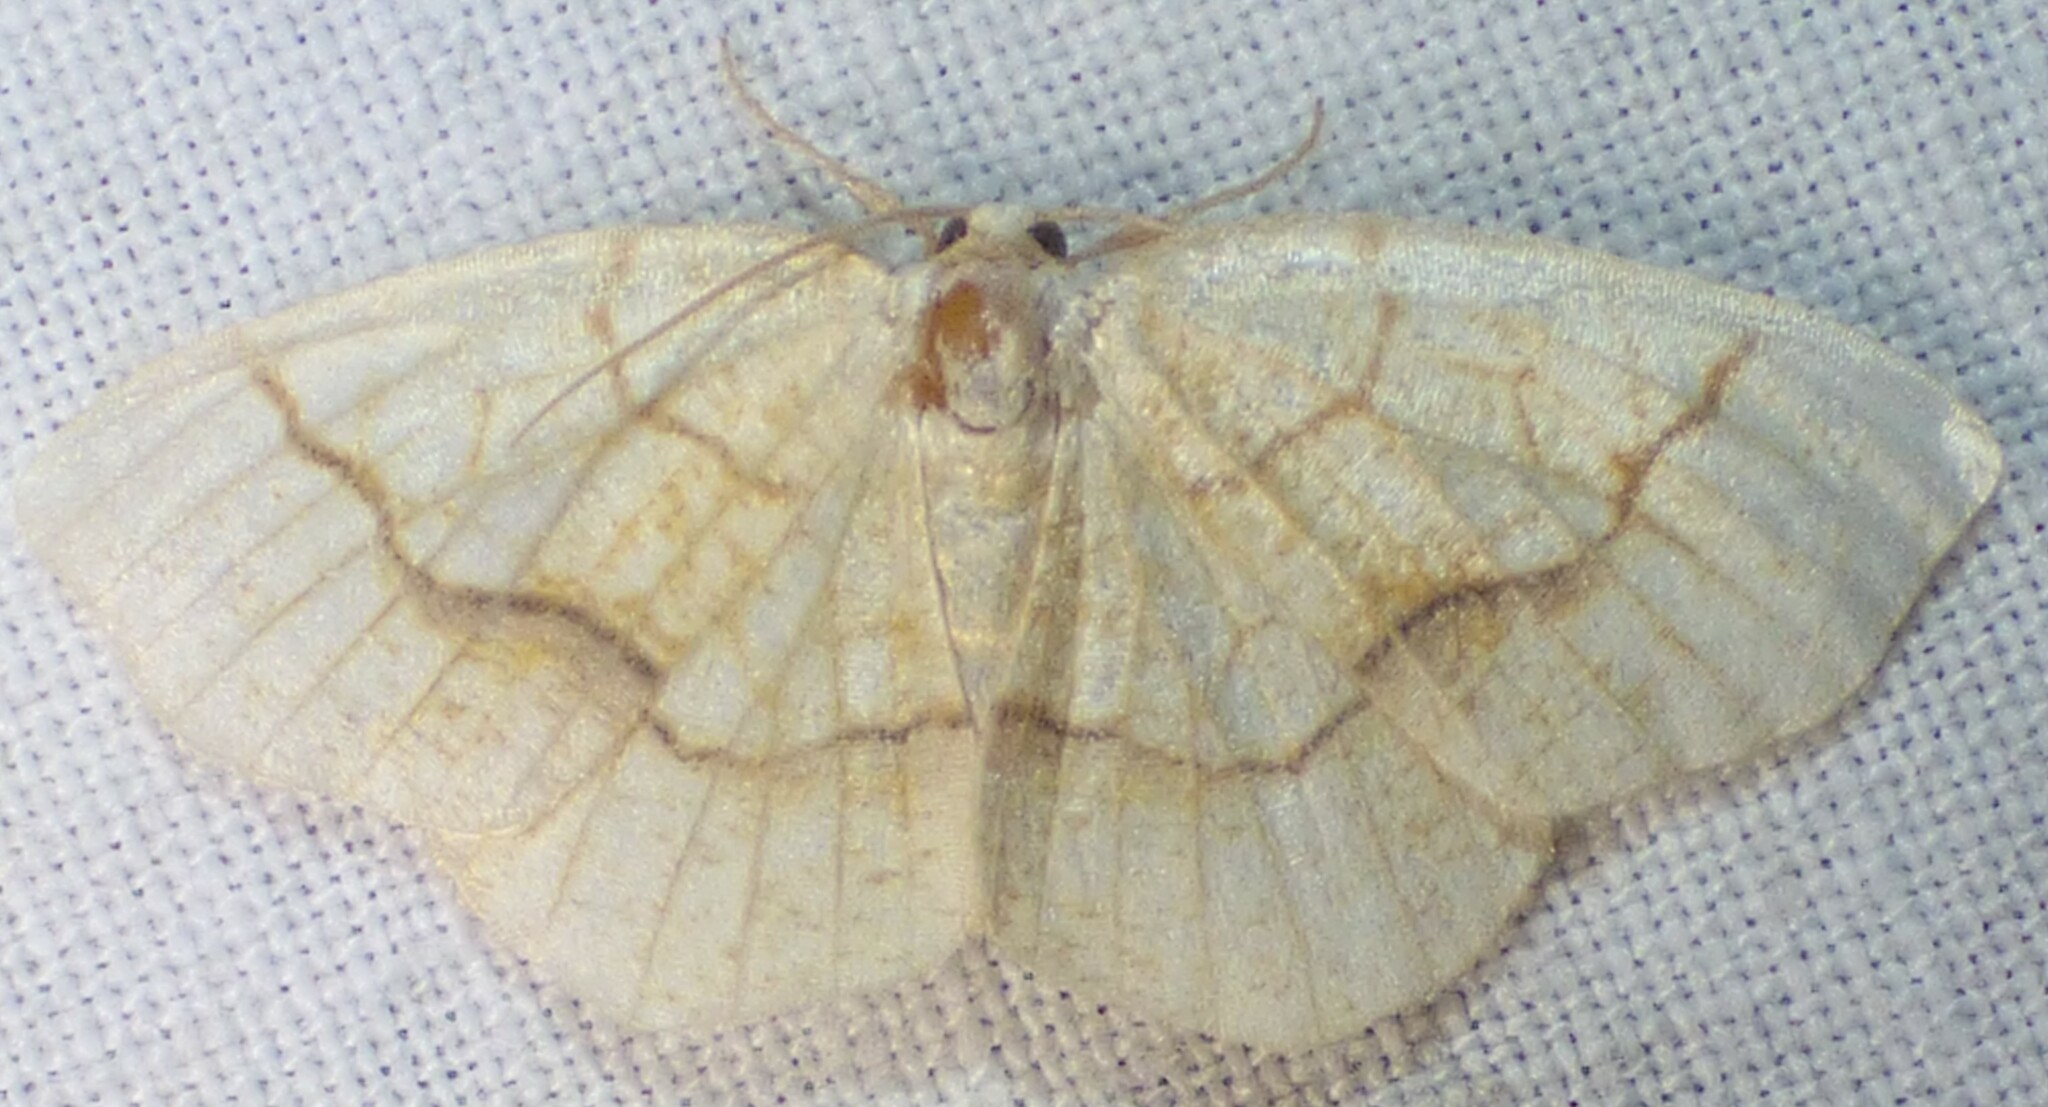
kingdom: Animalia
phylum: Arthropoda
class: Insecta
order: Lepidoptera
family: Geometridae
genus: Nematocampa
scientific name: Nematocampa resistaria
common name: Horned spanworm moth
